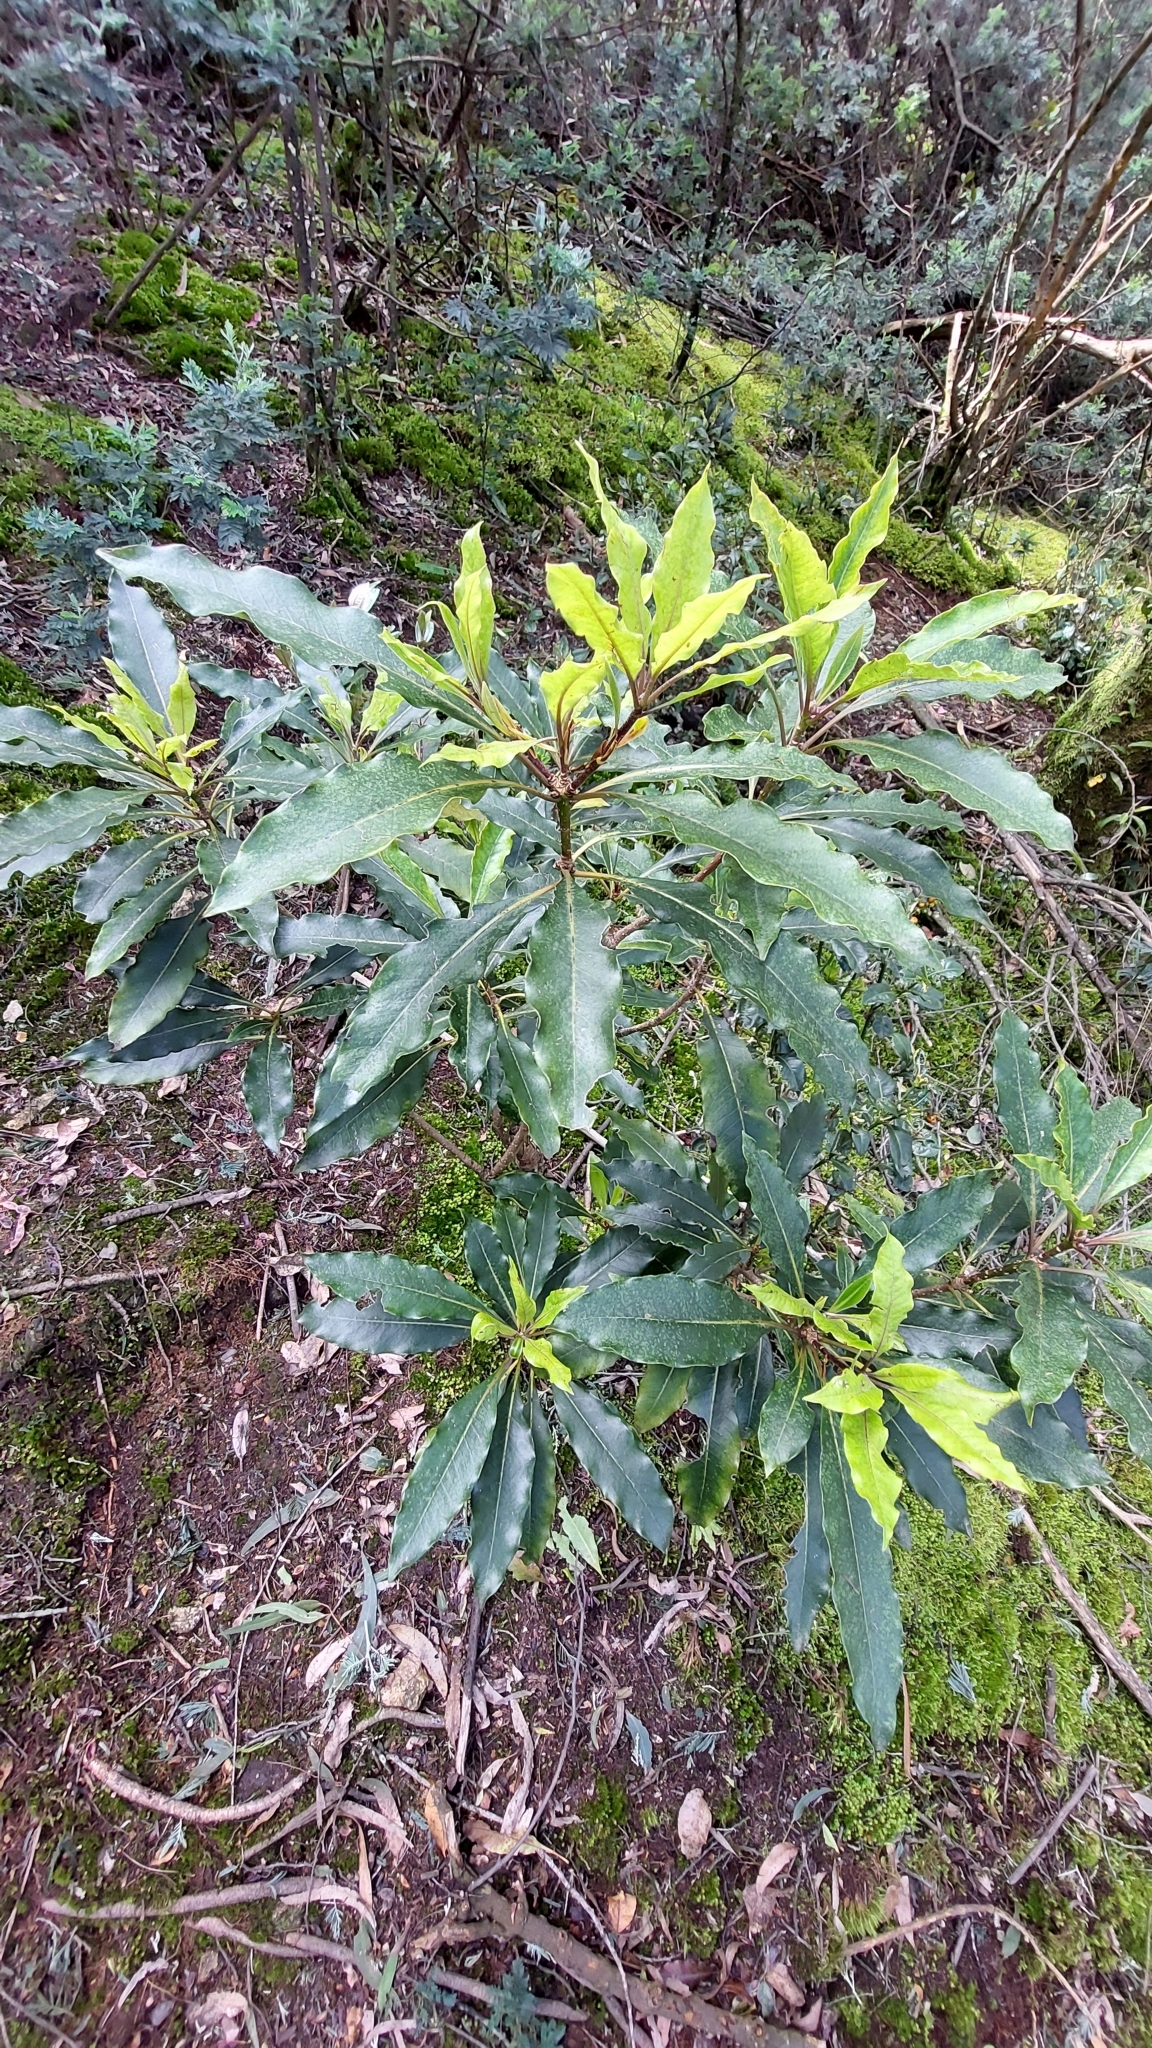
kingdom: Plantae
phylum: Tracheophyta
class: Magnoliopsida
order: Apiales
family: Pittosporaceae
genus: Pittosporum
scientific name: Pittosporum undulatum
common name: Australian cheesewood
